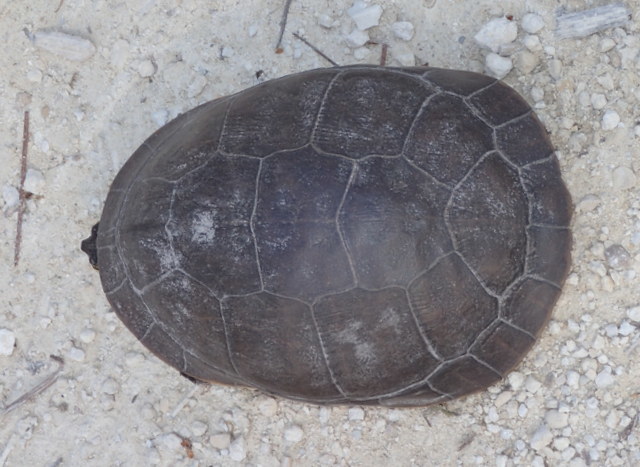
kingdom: Animalia
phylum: Chordata
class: Testudines
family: Emydidae
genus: Deirochelys
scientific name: Deirochelys reticularia
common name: Chicken turtle
